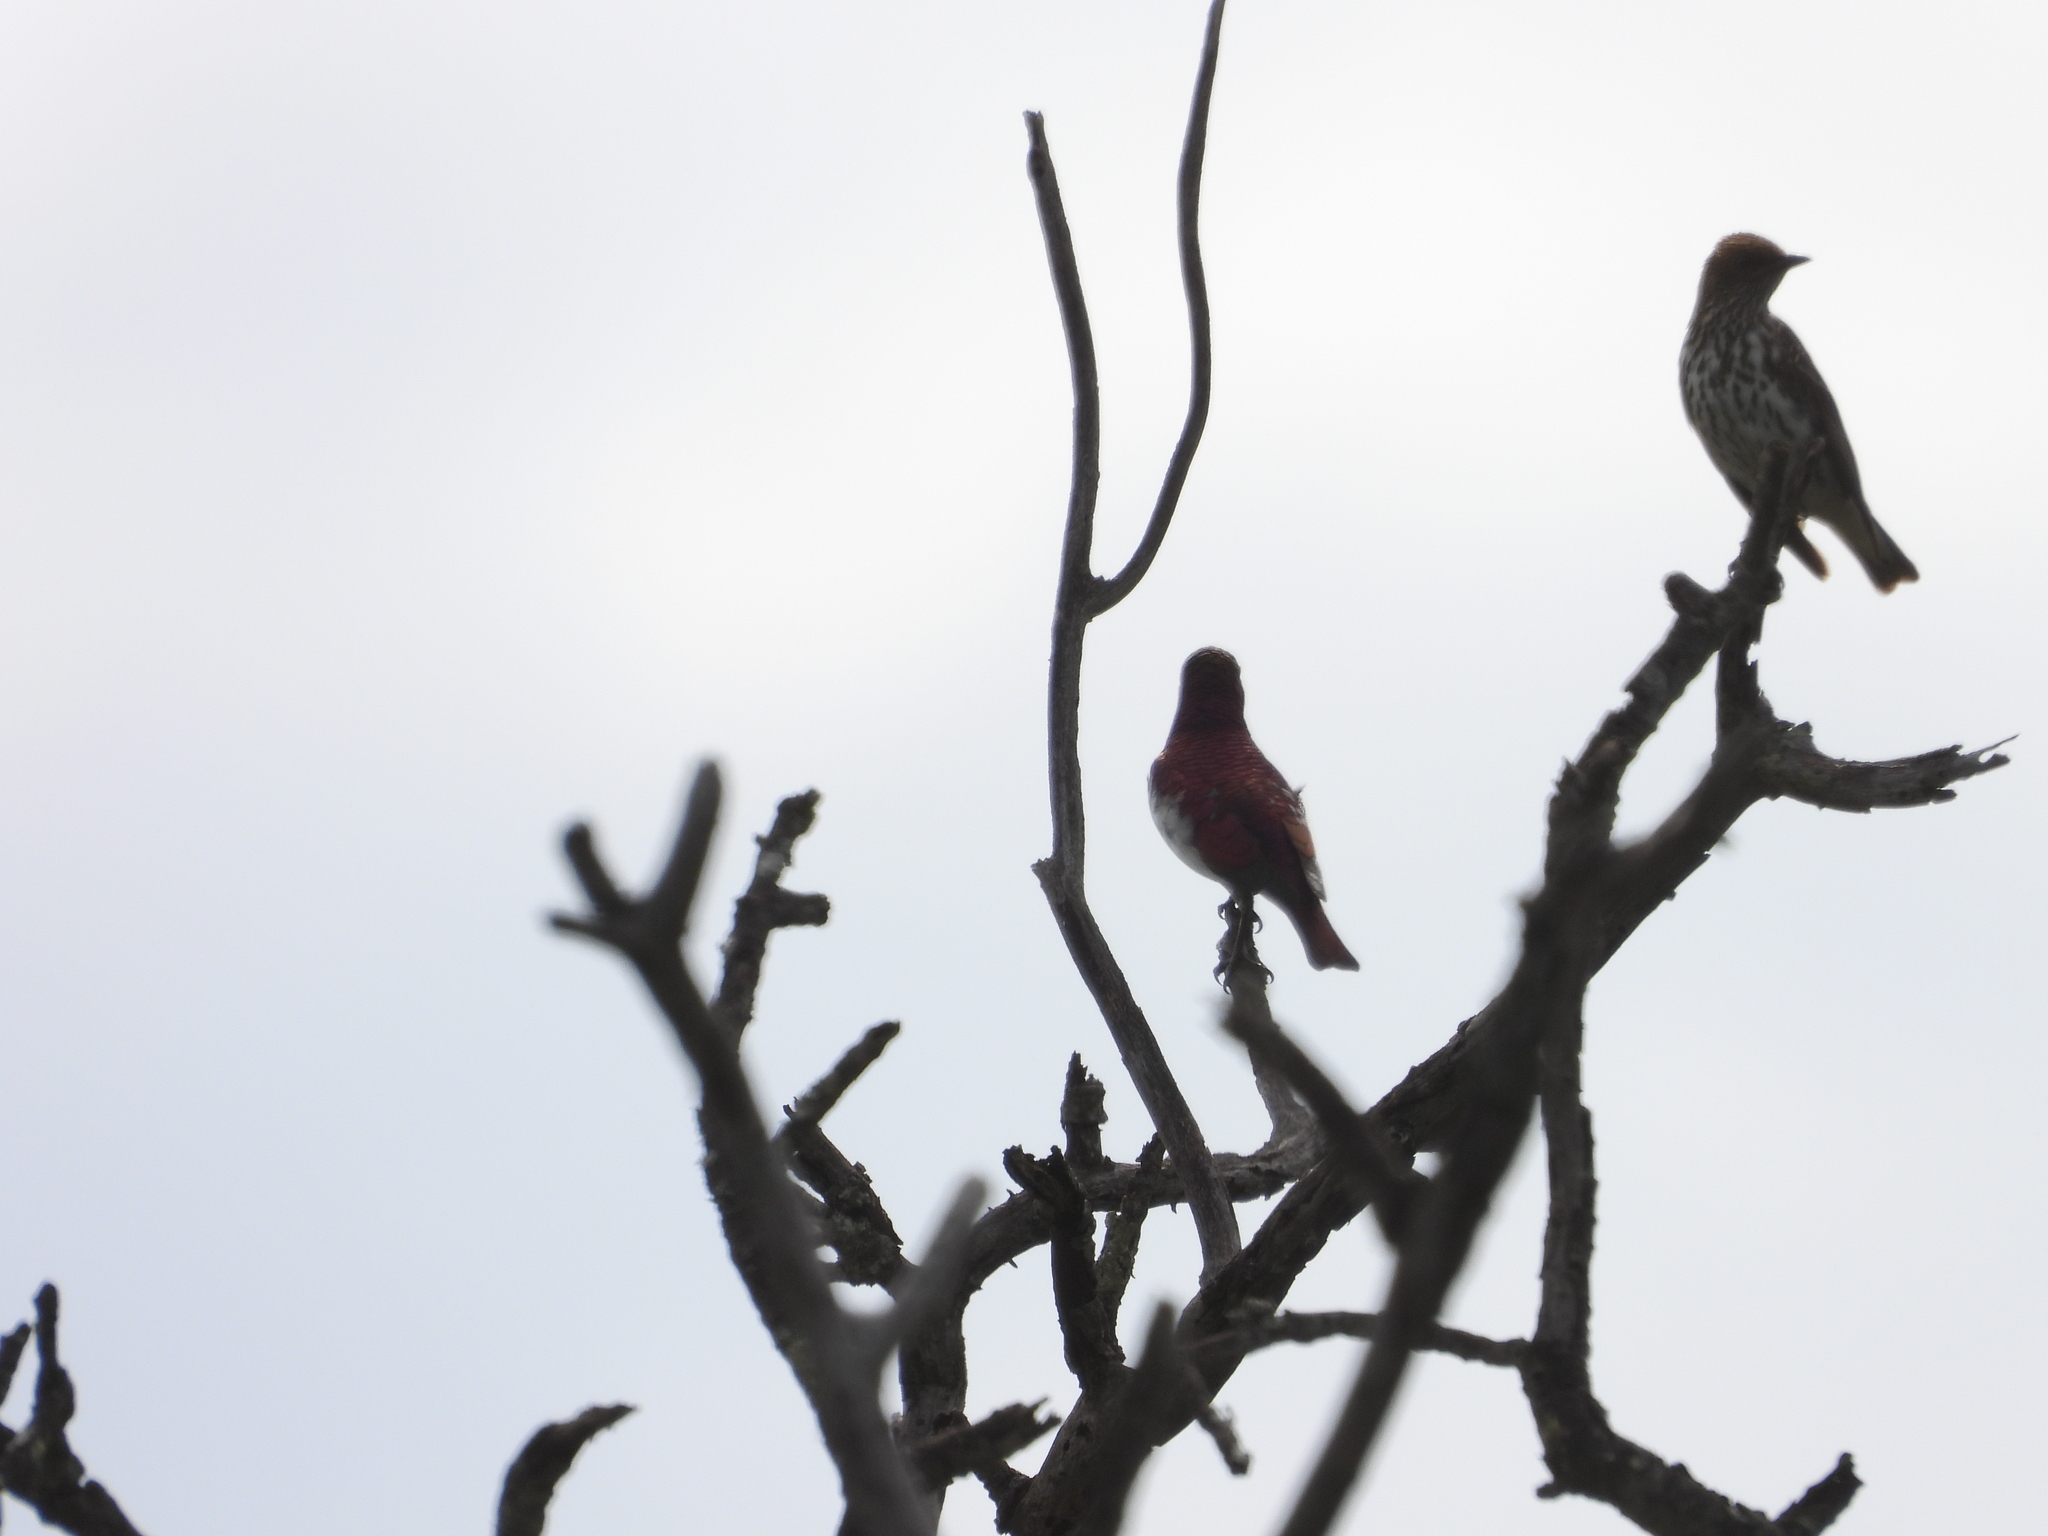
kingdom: Animalia
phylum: Chordata
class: Aves
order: Passeriformes
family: Sturnidae
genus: Cinnyricinclus
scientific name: Cinnyricinclus leucogaster
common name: Violet-backed starling
